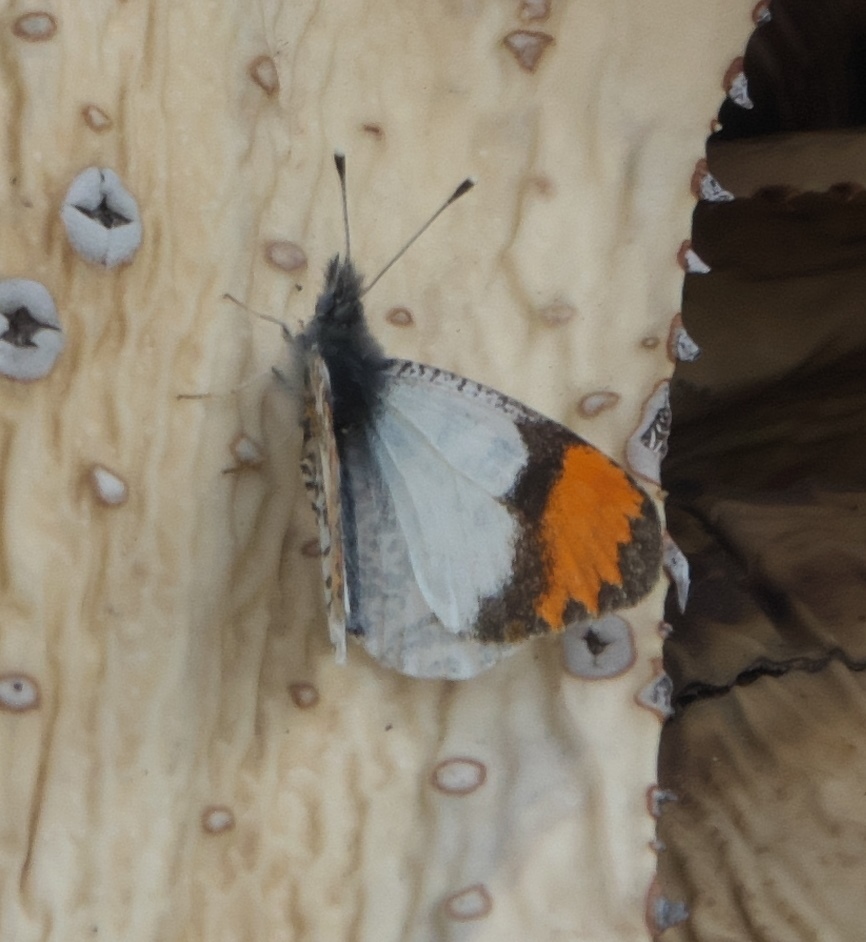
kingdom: Animalia
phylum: Arthropoda
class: Insecta
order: Lepidoptera
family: Pieridae
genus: Anthocharis
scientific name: Anthocharis thoosa
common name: Southwestern orangetip
